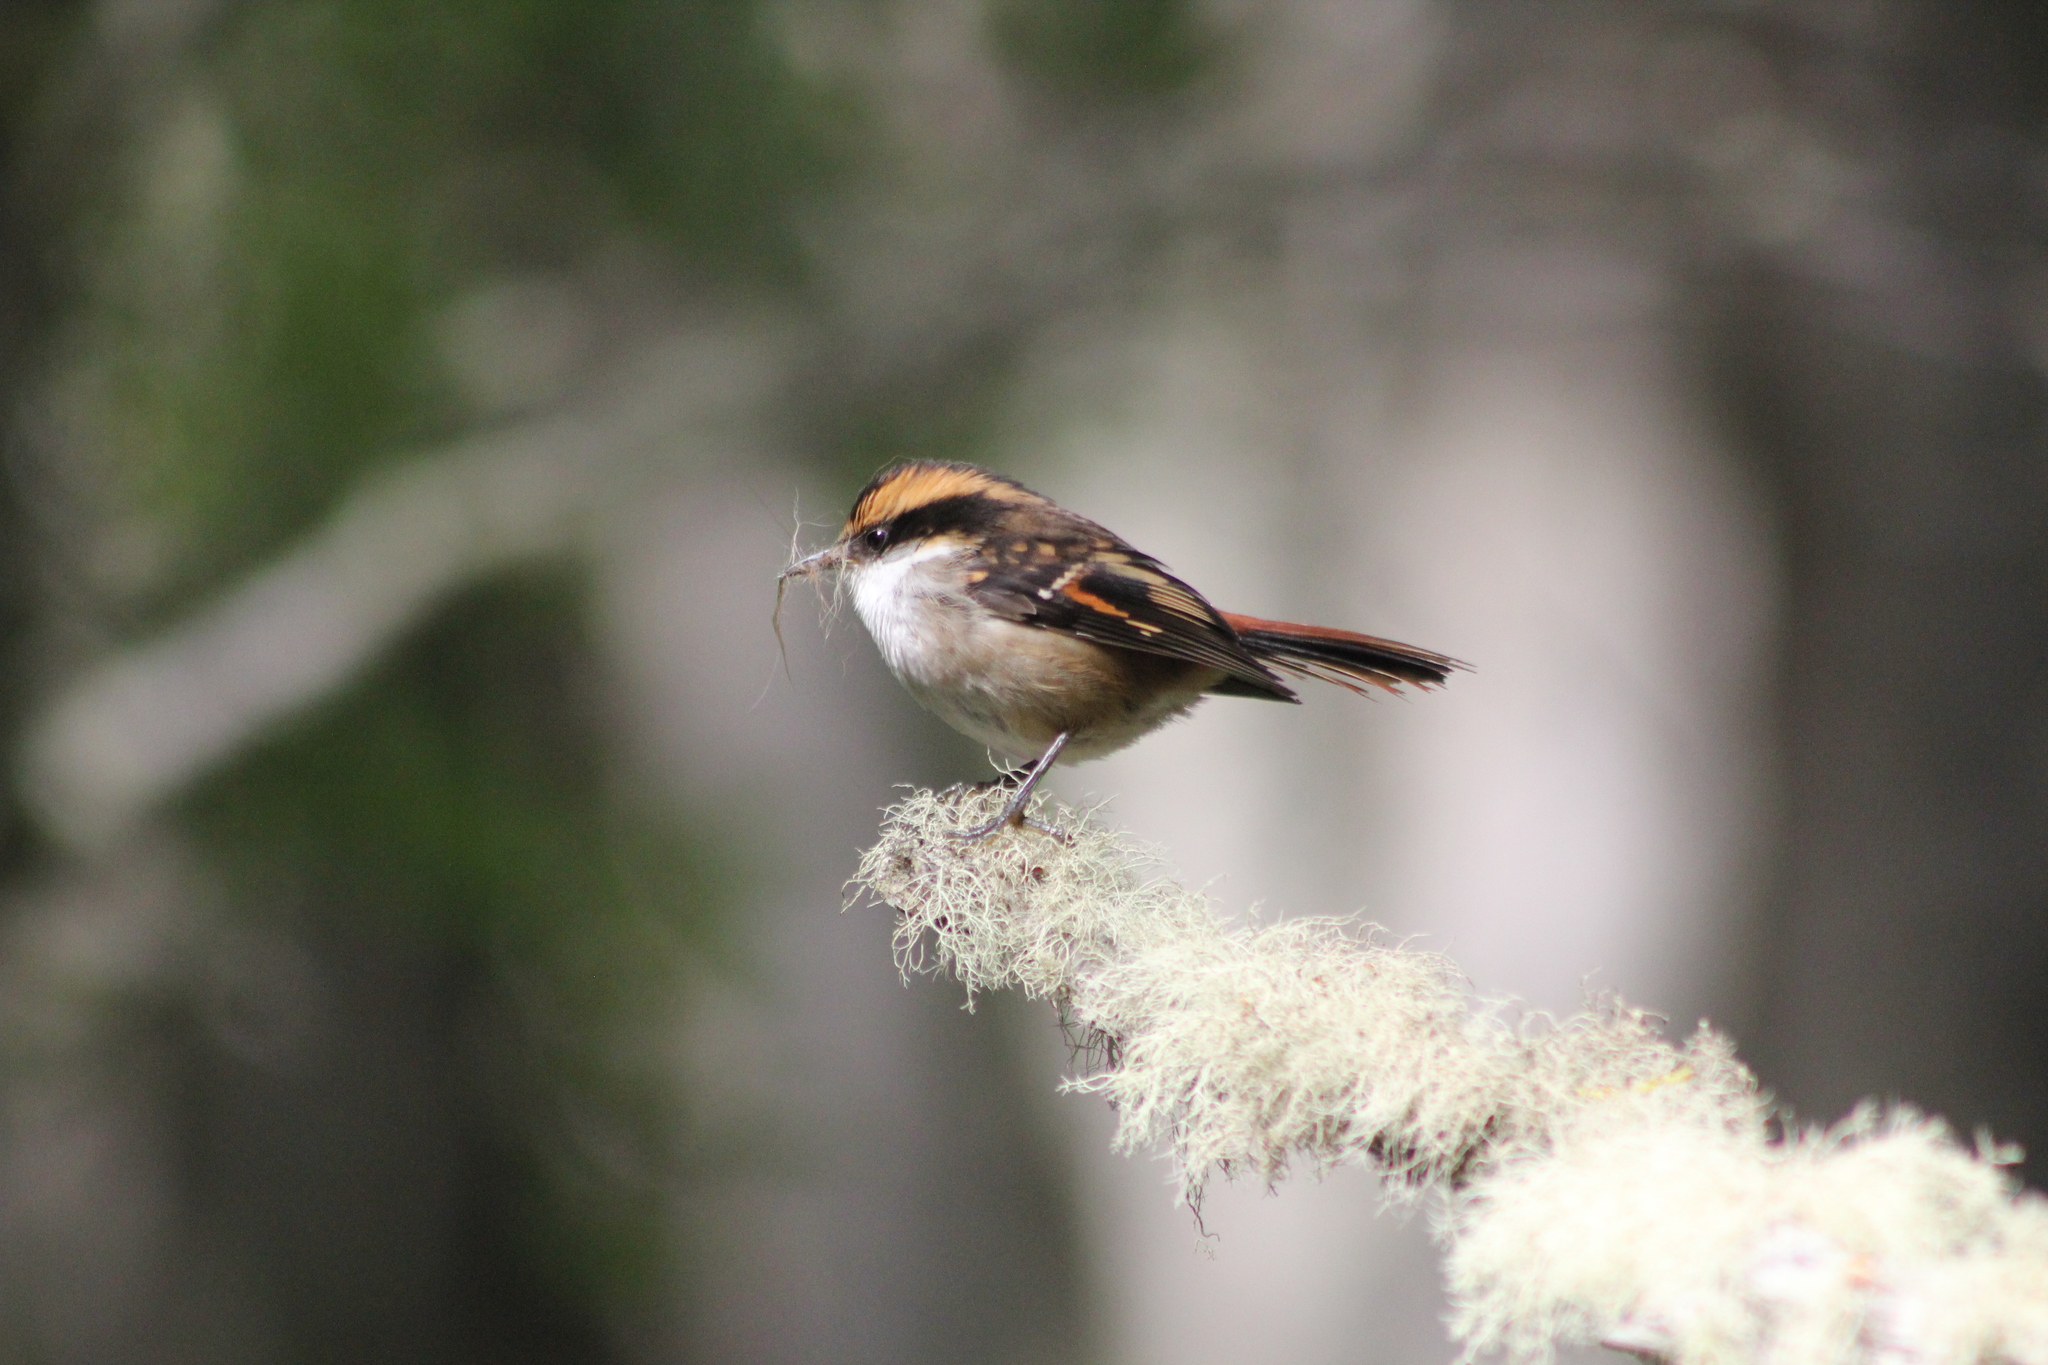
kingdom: Animalia
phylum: Chordata
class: Aves
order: Passeriformes
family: Furnariidae
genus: Aphrastura
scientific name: Aphrastura spinicauda
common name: Thorn-tailed rayadito
